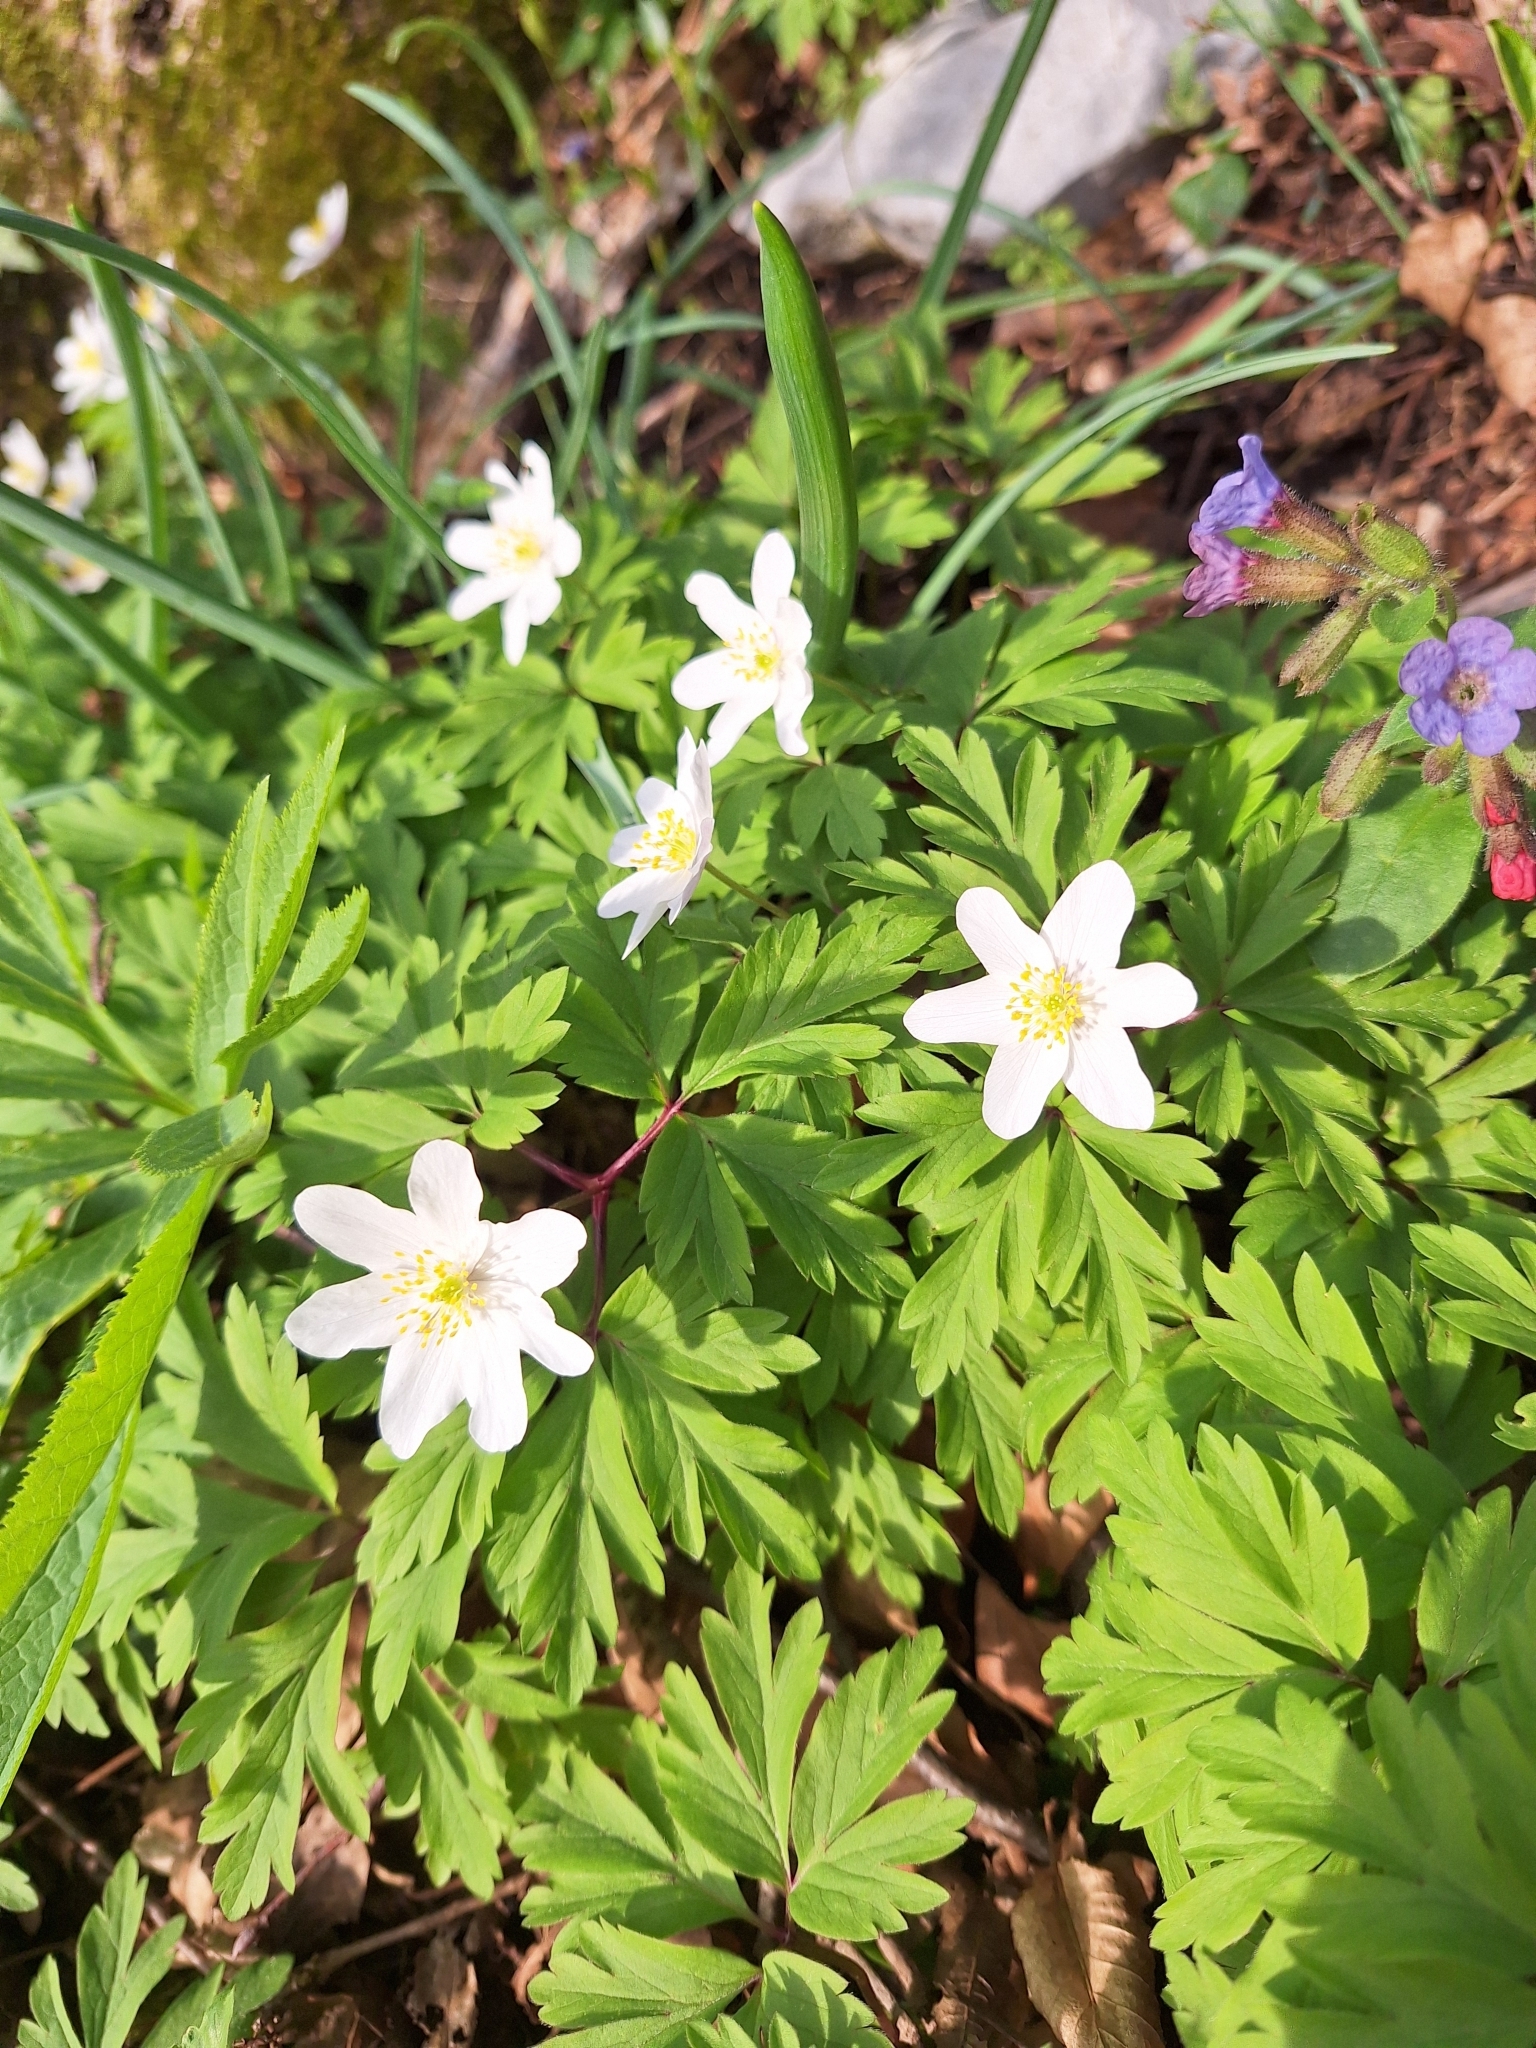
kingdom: Plantae
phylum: Tracheophyta
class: Magnoliopsida
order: Ranunculales
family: Ranunculaceae
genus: Anemone
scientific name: Anemone nemorosa
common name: Wood anemone
